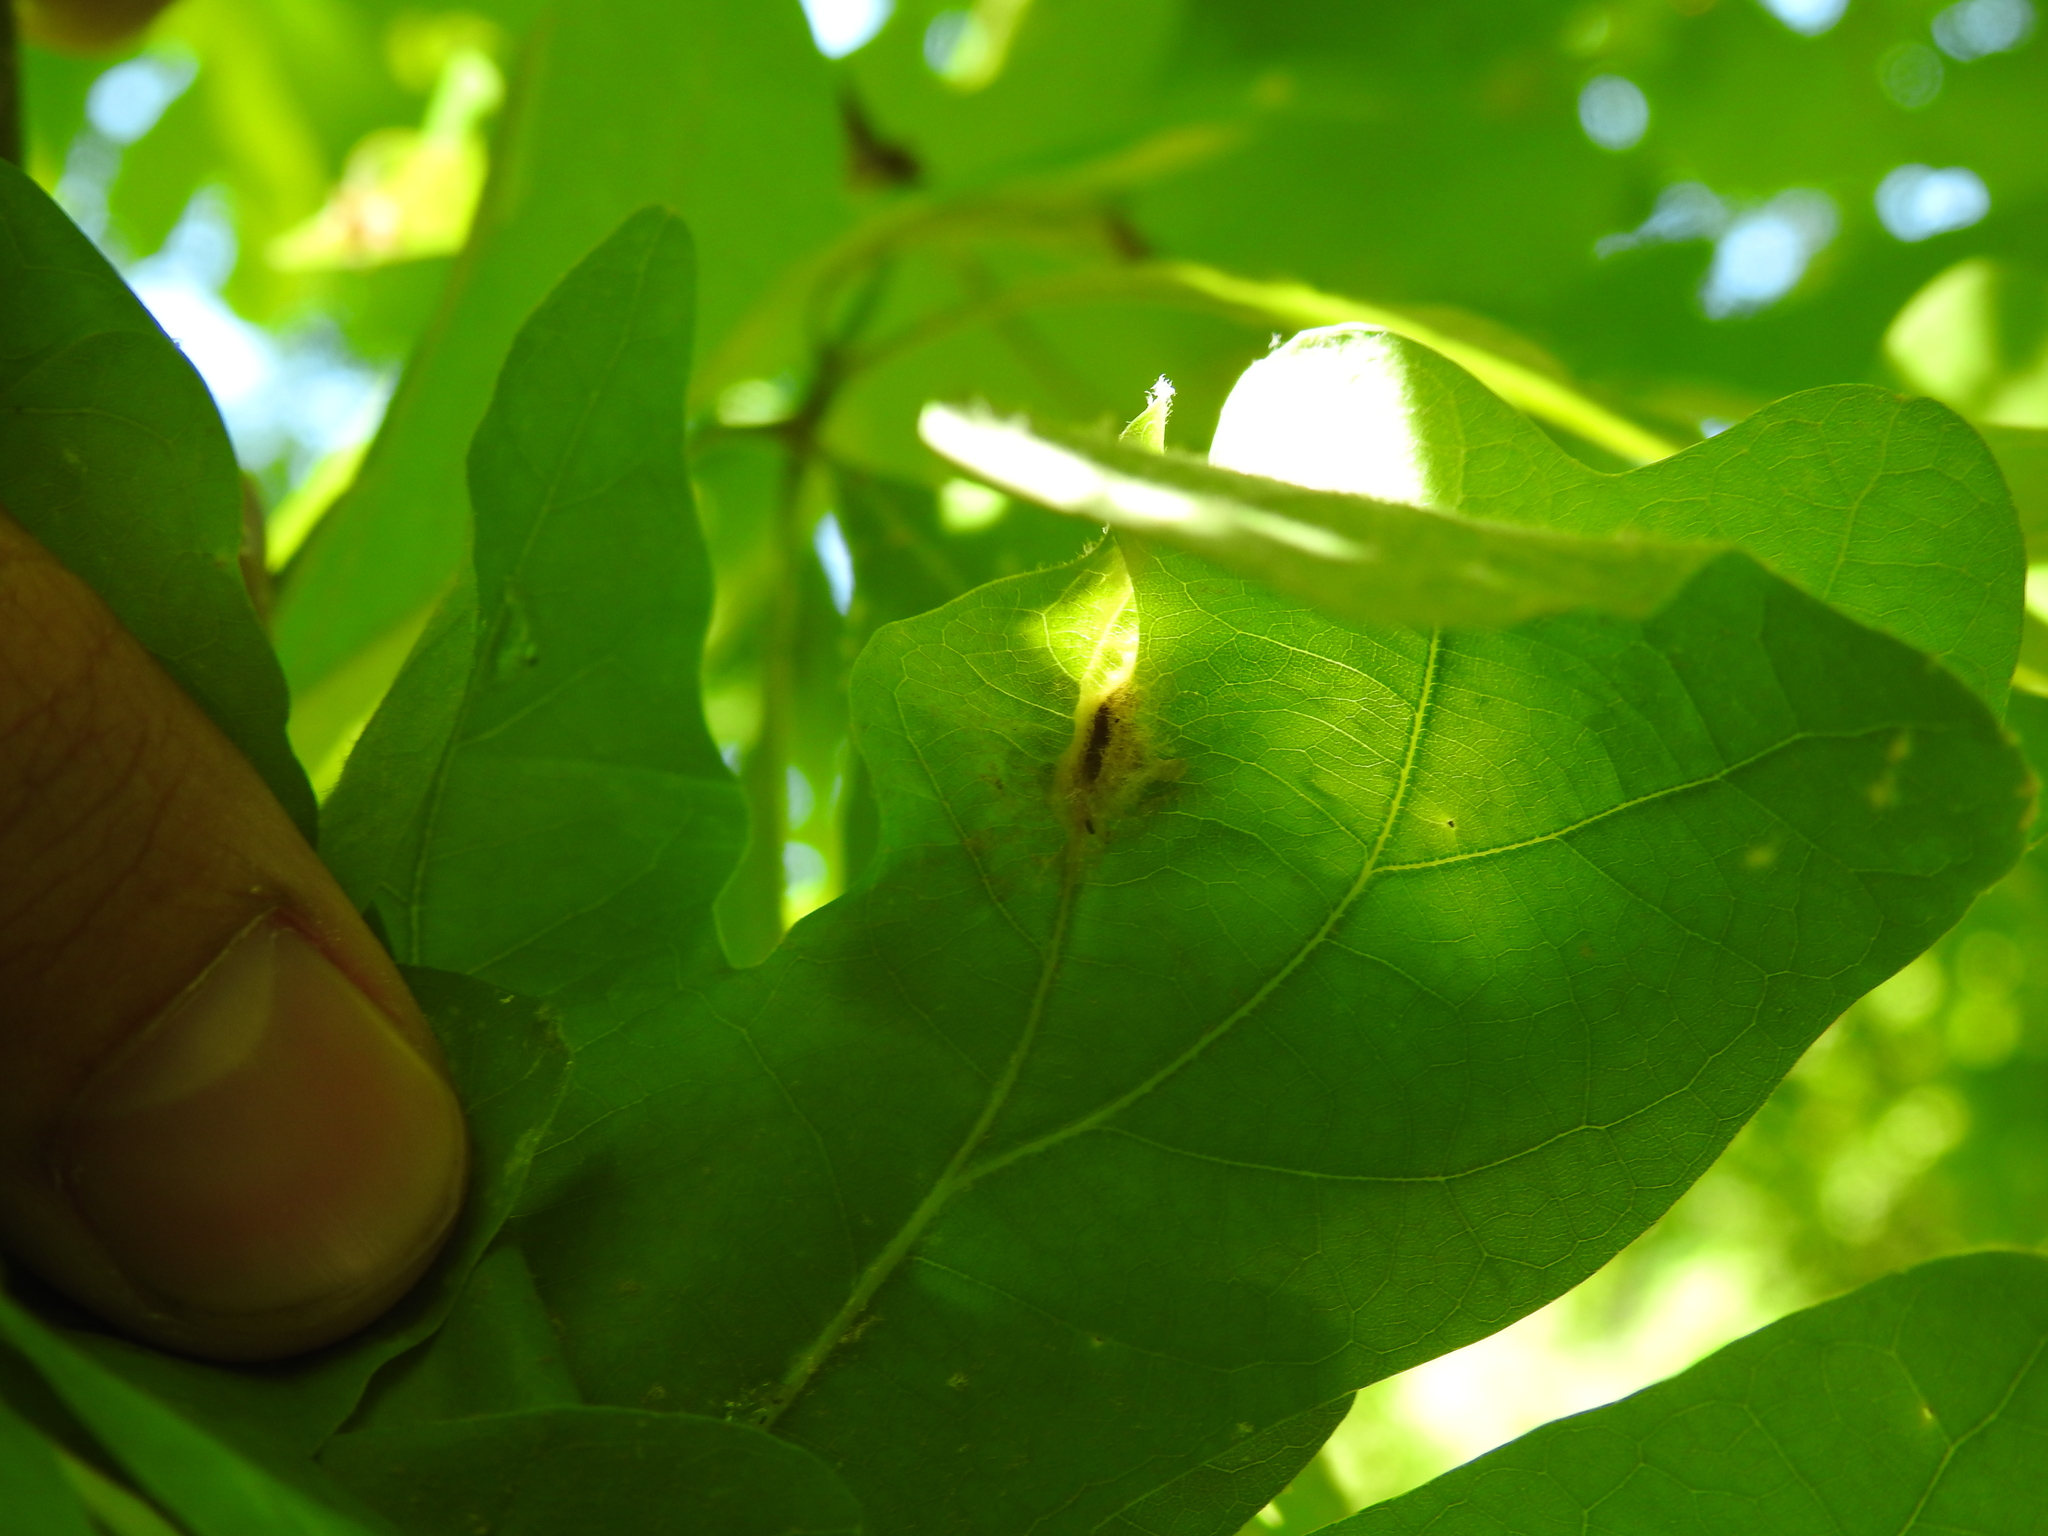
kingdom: Animalia
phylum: Arthropoda
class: Insecta
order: Hymenoptera
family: Cynipidae
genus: Andricus
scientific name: Andricus
